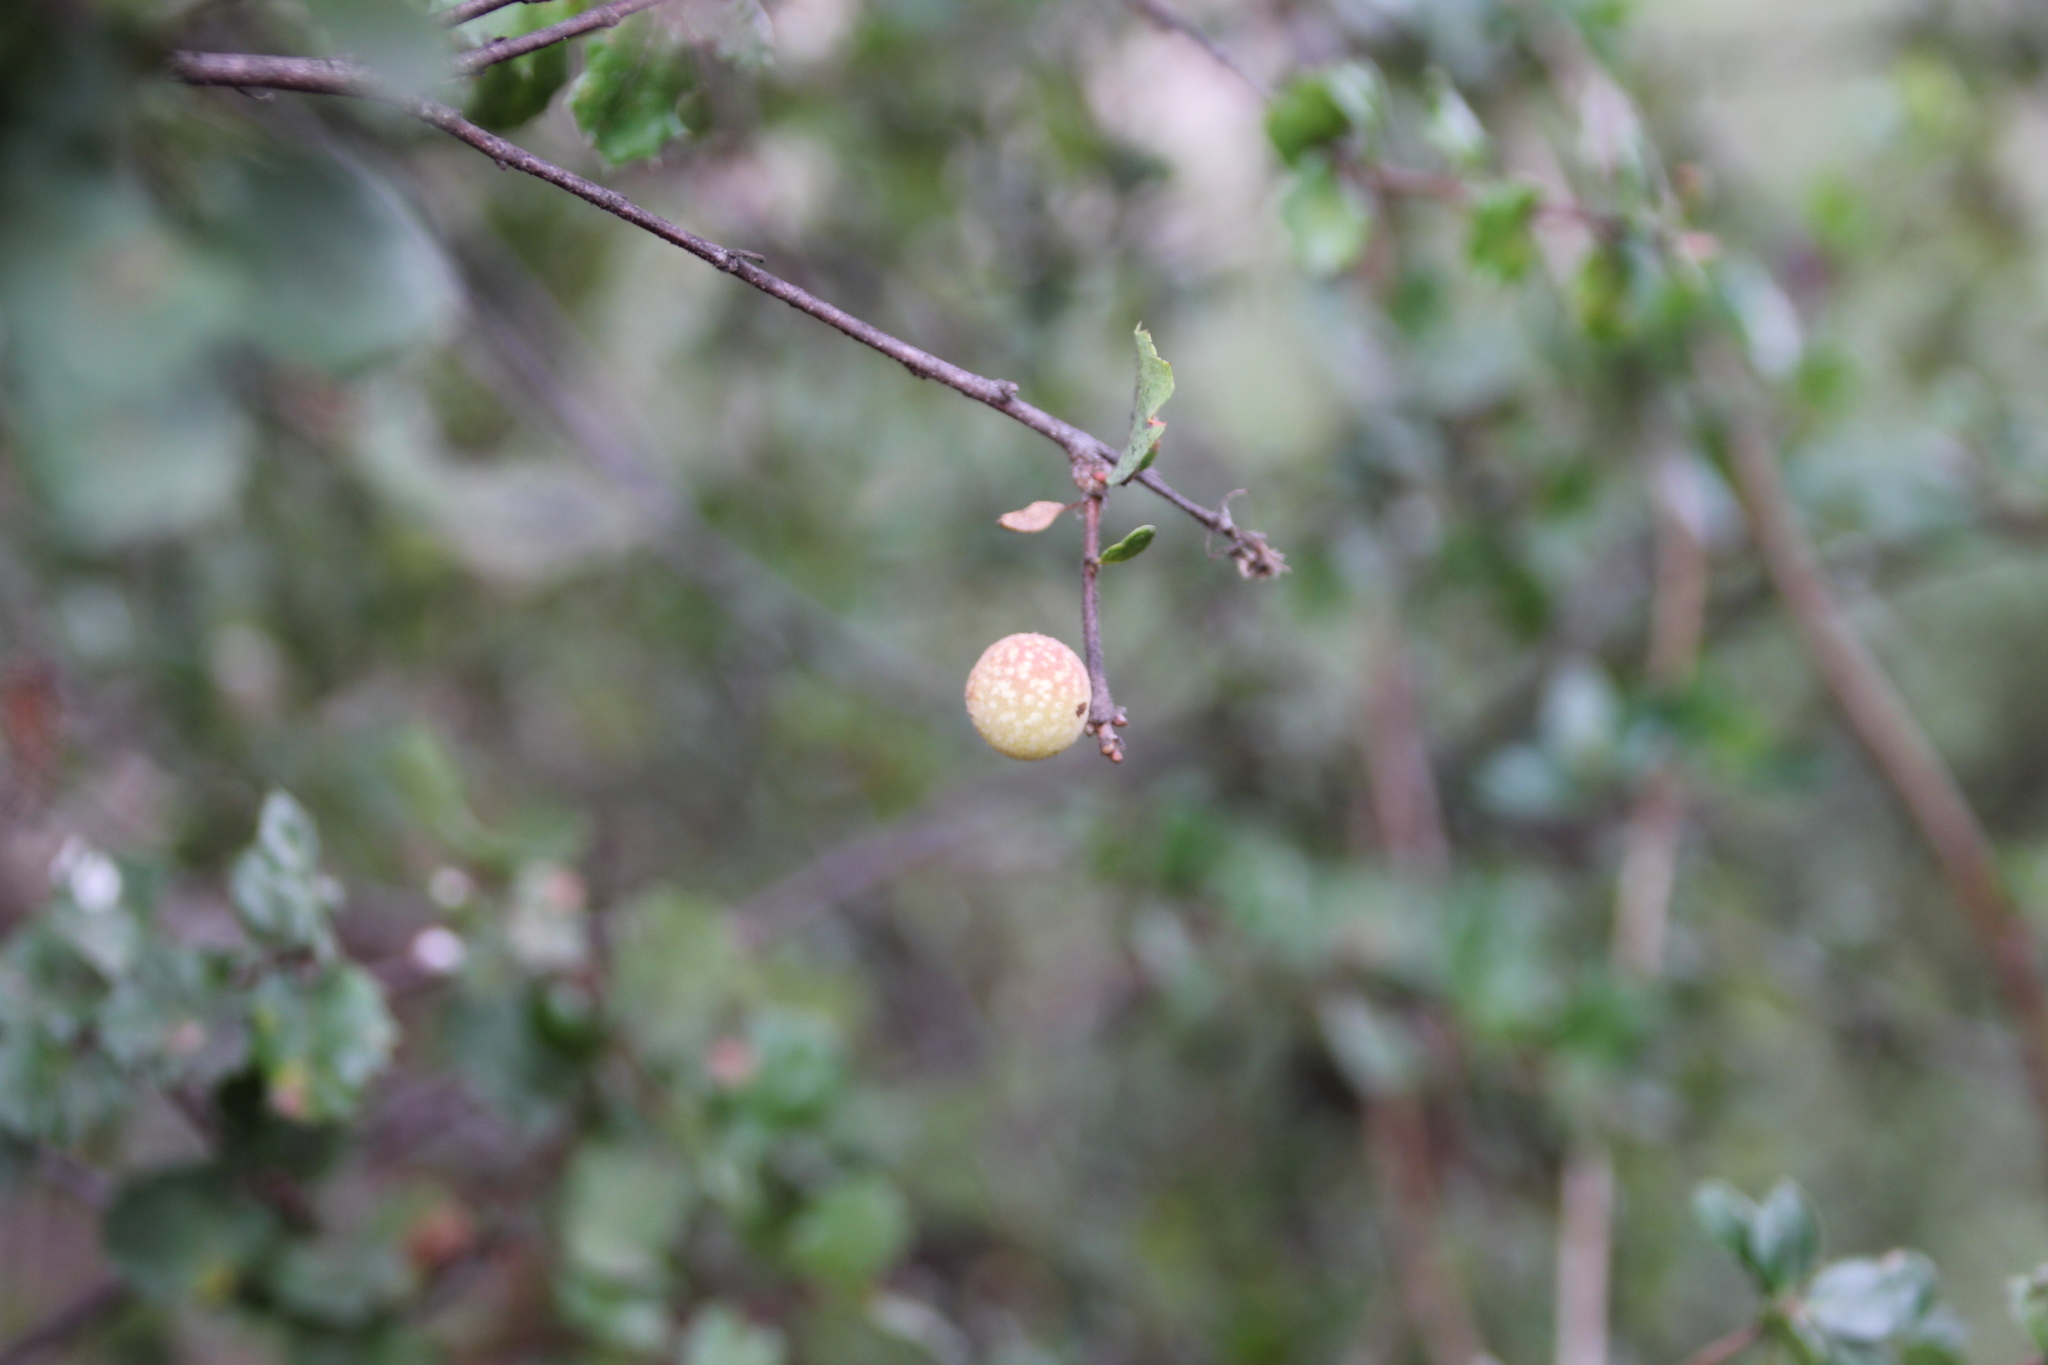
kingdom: Animalia
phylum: Arthropoda
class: Insecta
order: Hymenoptera
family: Cynipidae
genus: Burnettweldia
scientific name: Burnettweldia
